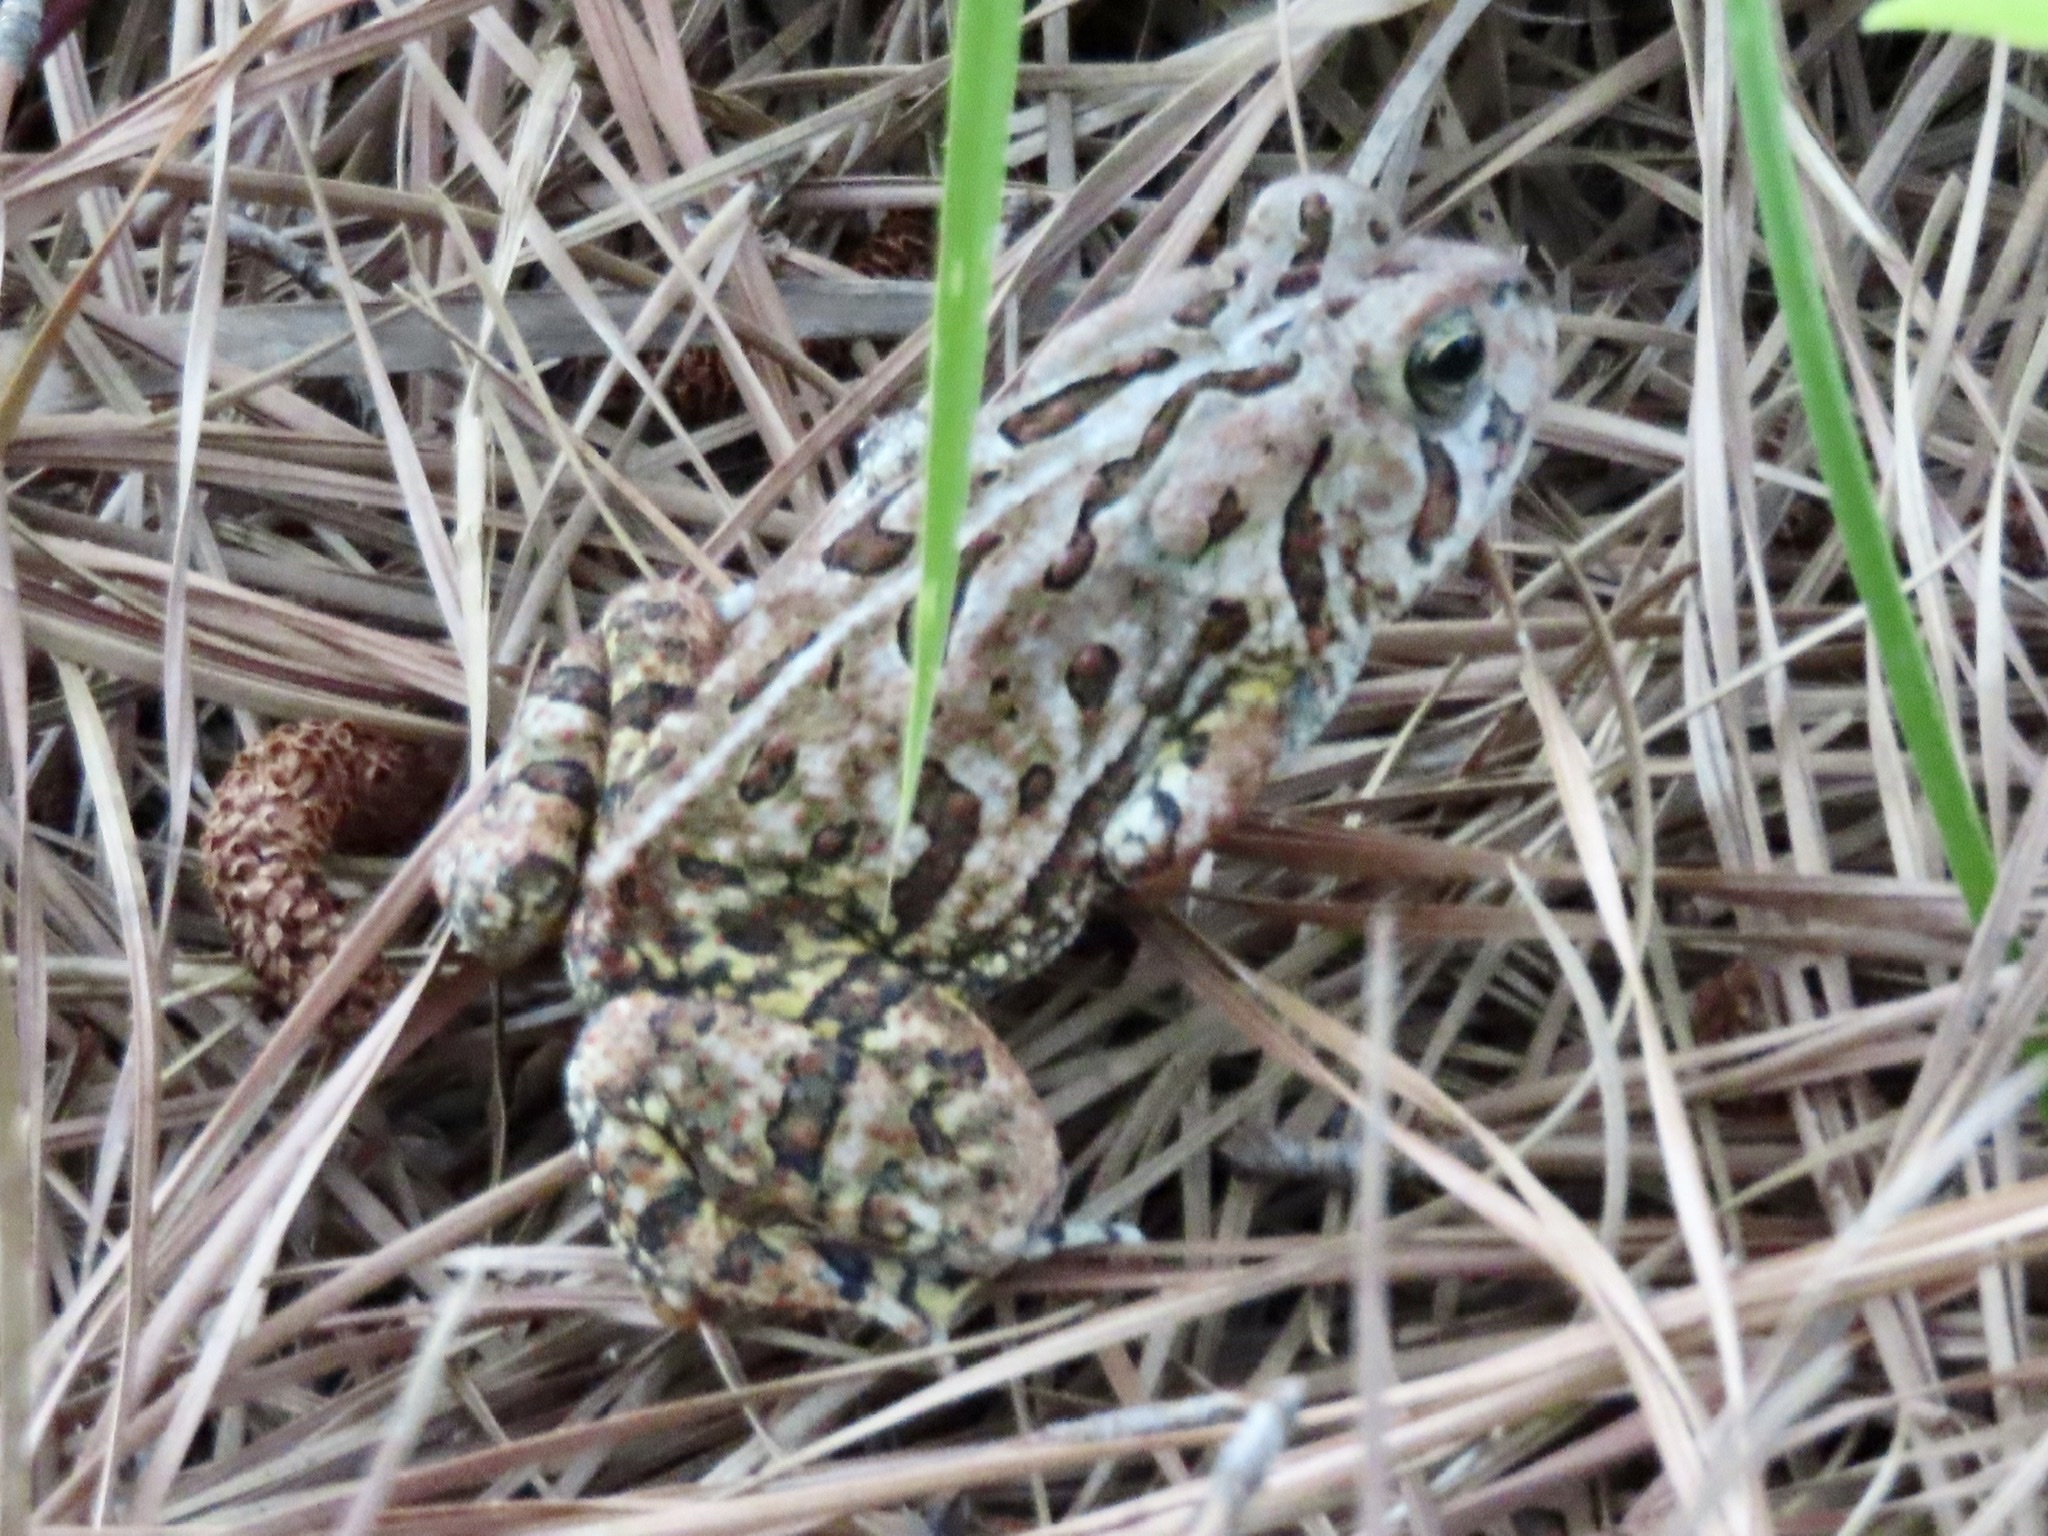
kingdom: Animalia
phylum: Chordata
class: Amphibia
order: Anura
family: Bufonidae
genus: Anaxyrus
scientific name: Anaxyrus fowleri
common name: Fowler's toad
